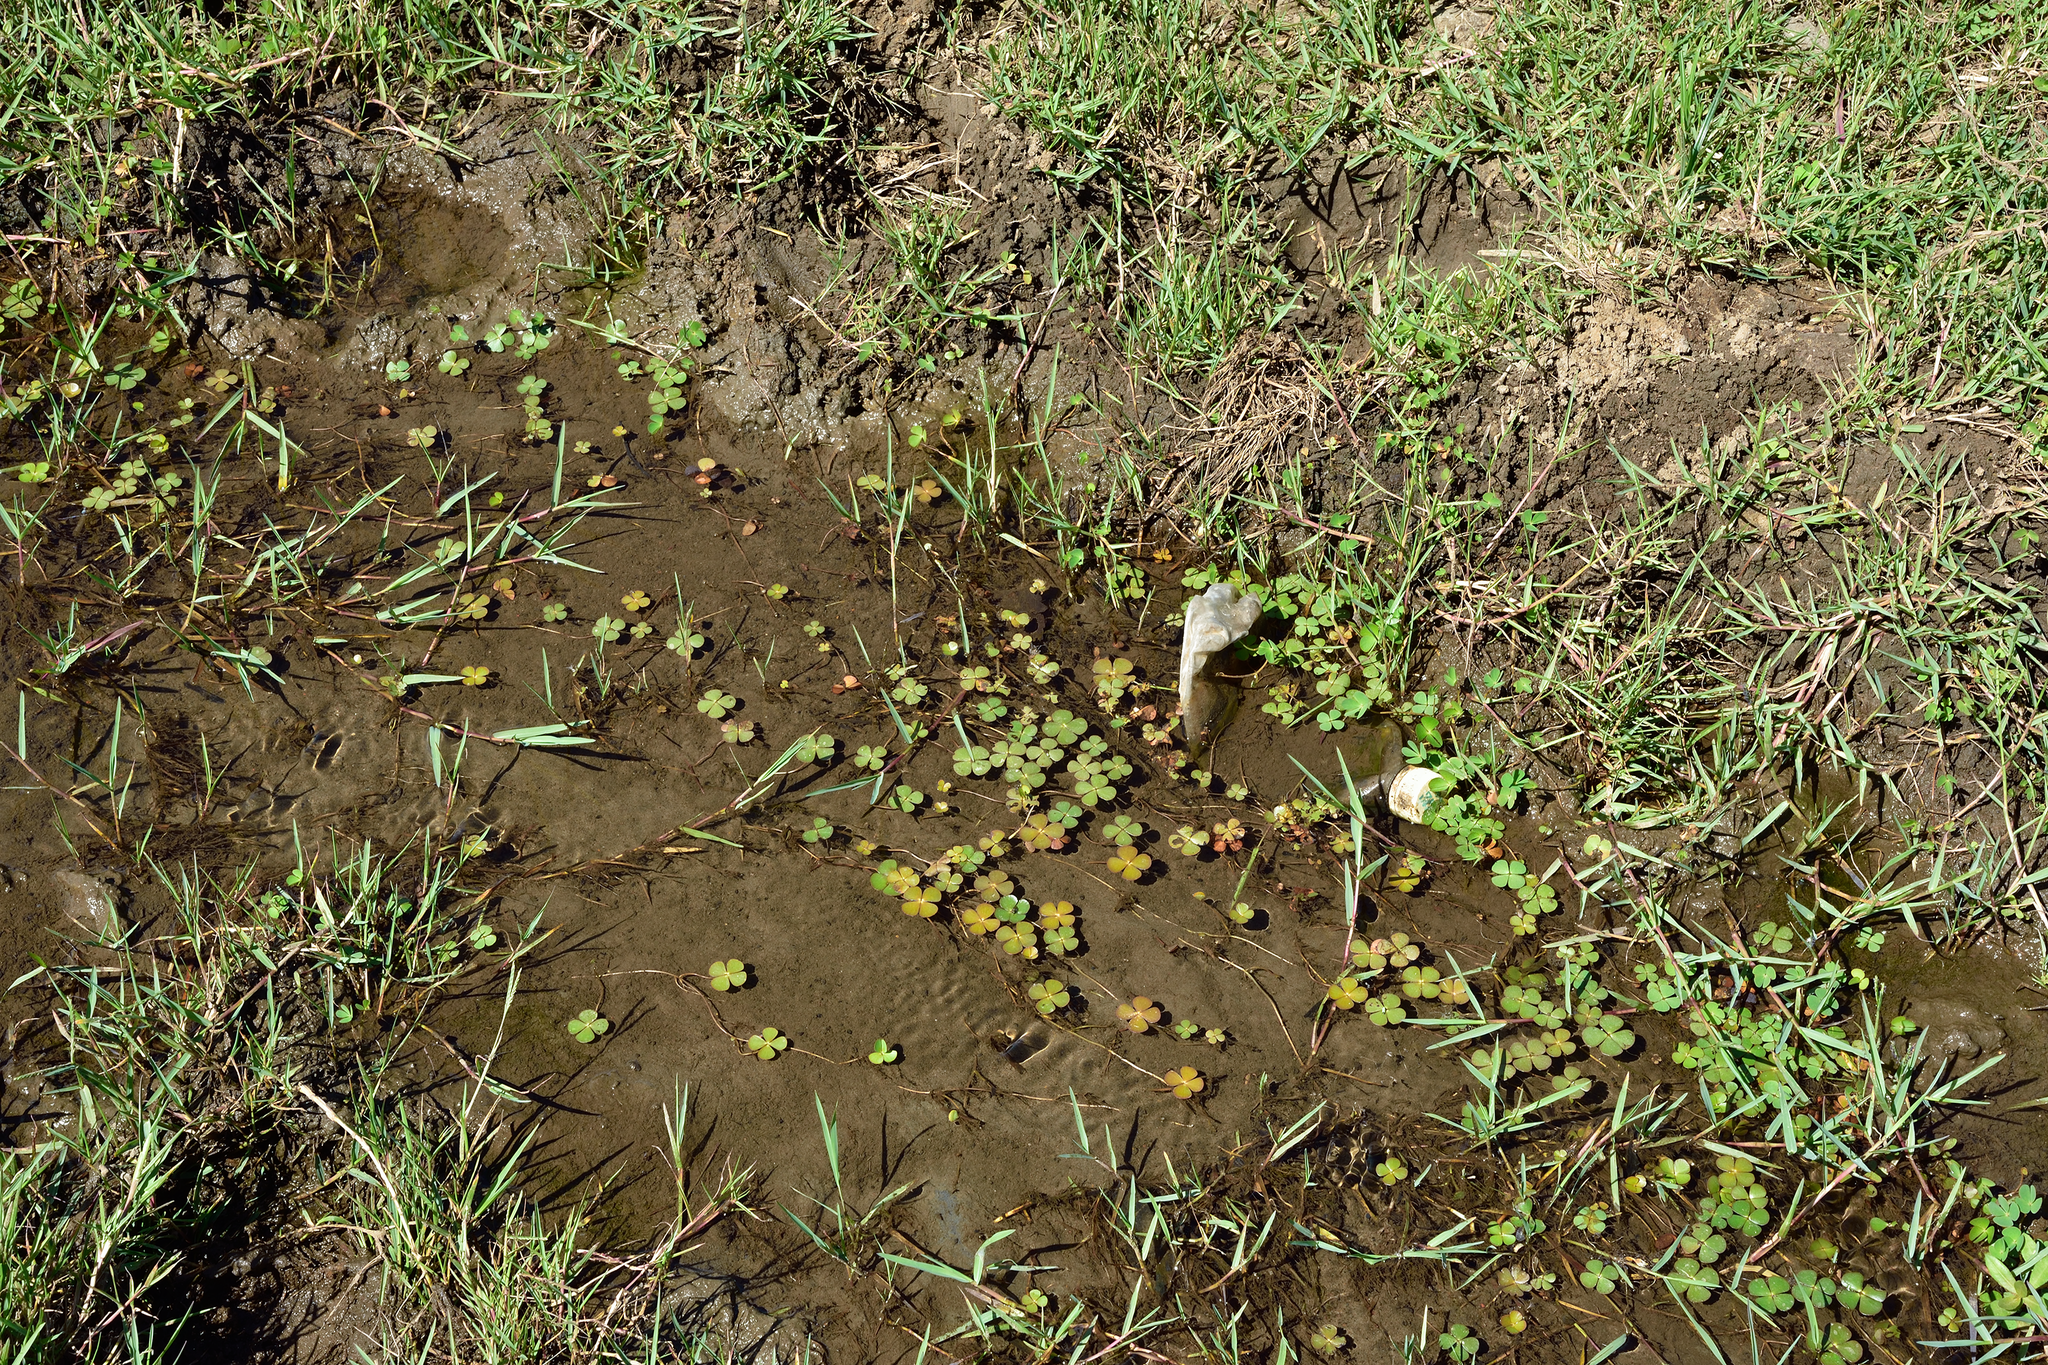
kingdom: Plantae
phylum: Tracheophyta
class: Polypodiopsida
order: Salviniales
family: Marsileaceae
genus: Marsilea
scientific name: Marsilea minuta
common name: Dwarf waterclover
